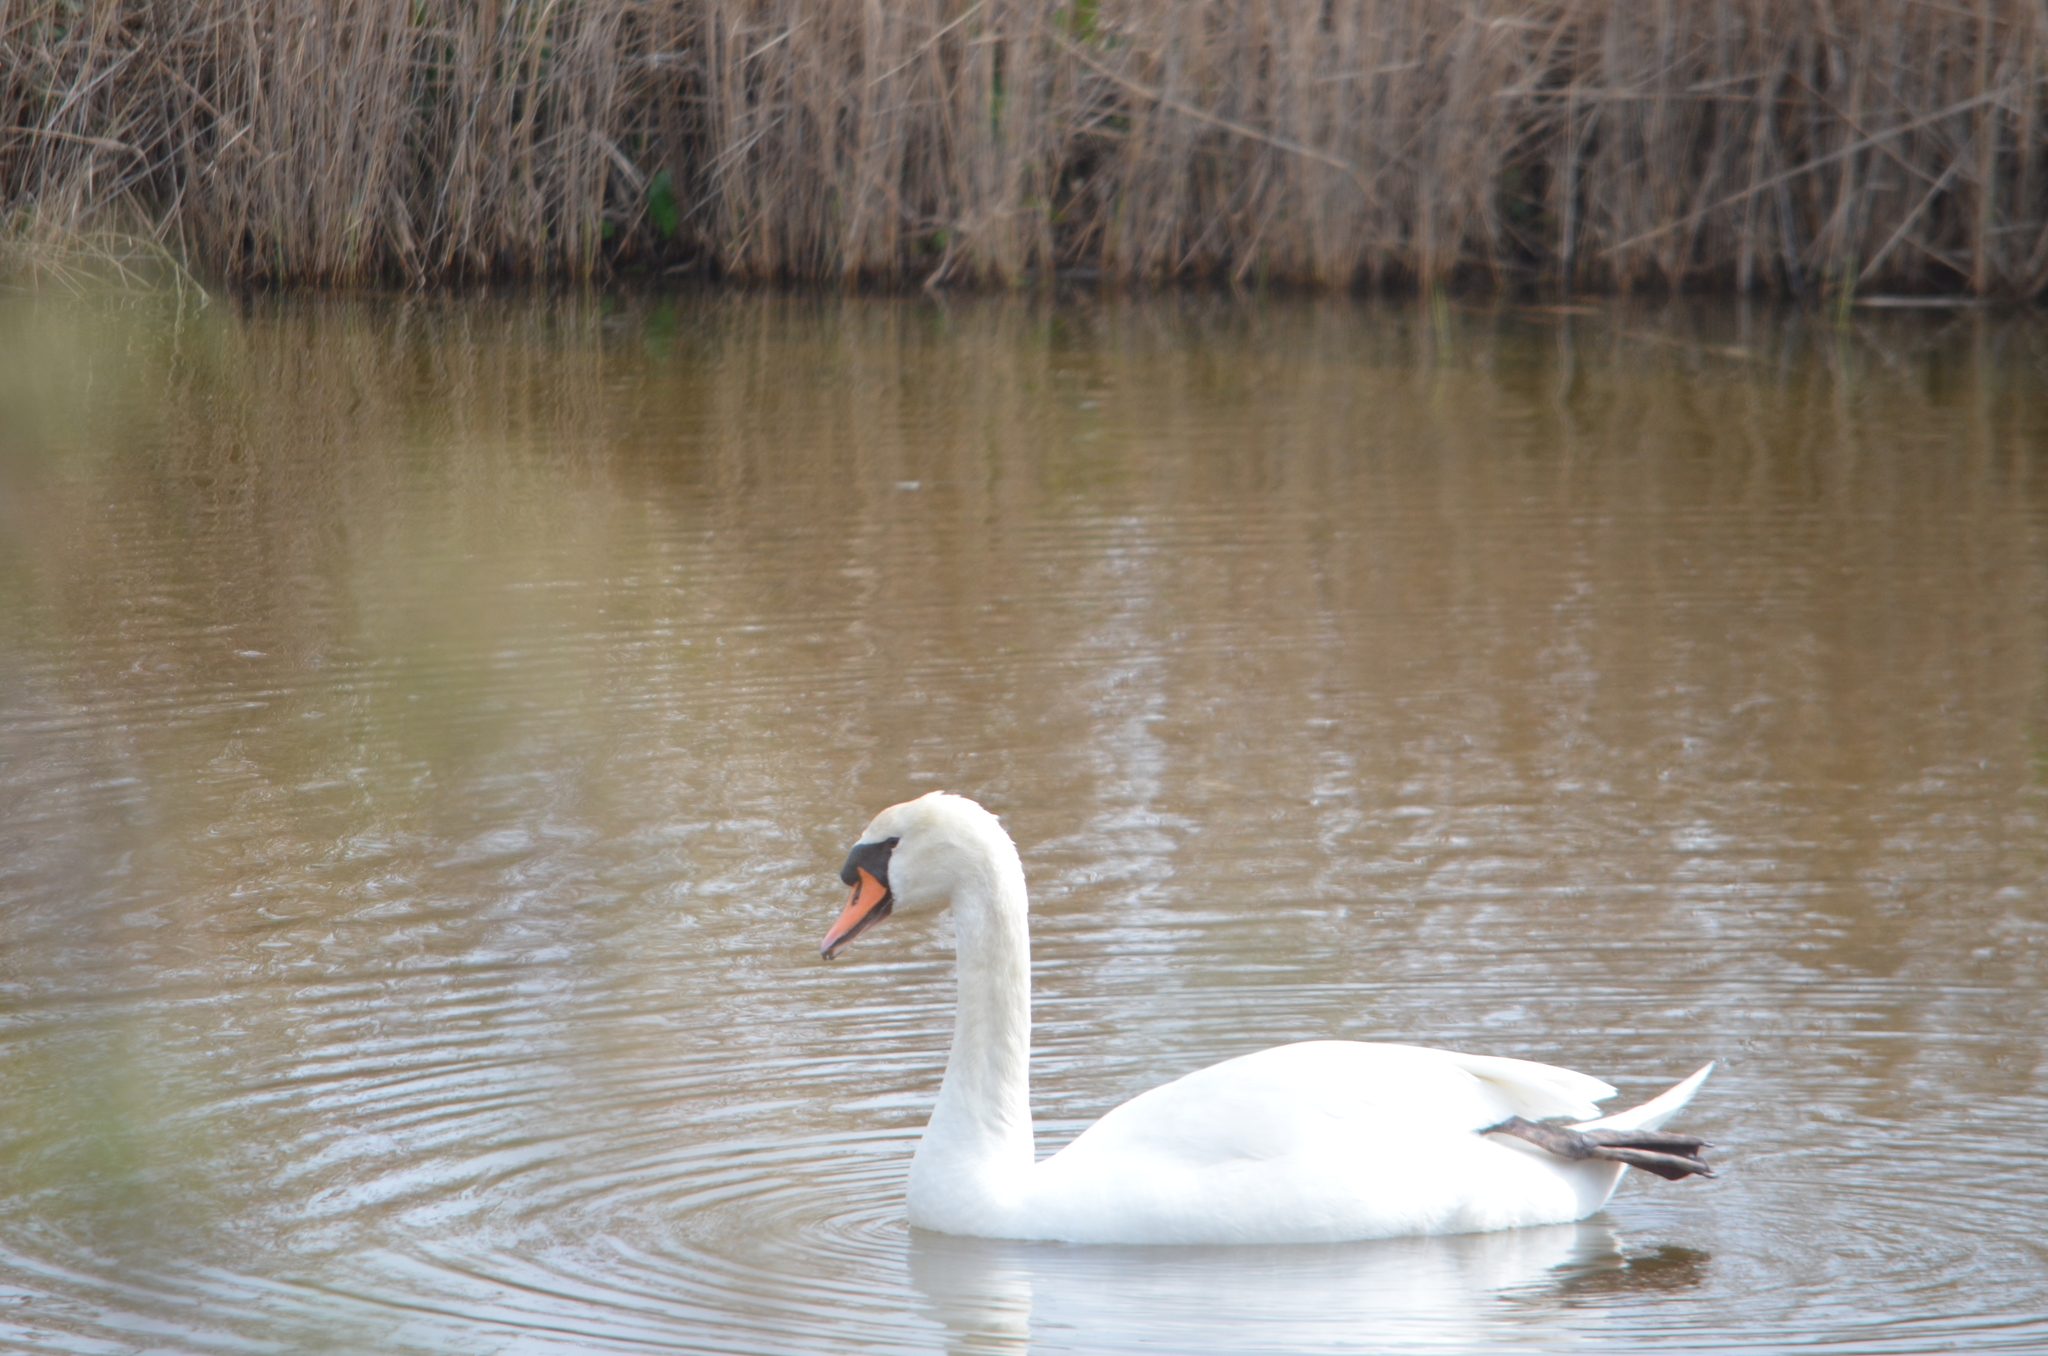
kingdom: Animalia
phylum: Chordata
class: Aves
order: Anseriformes
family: Anatidae
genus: Cygnus
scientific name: Cygnus olor
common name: Mute swan
